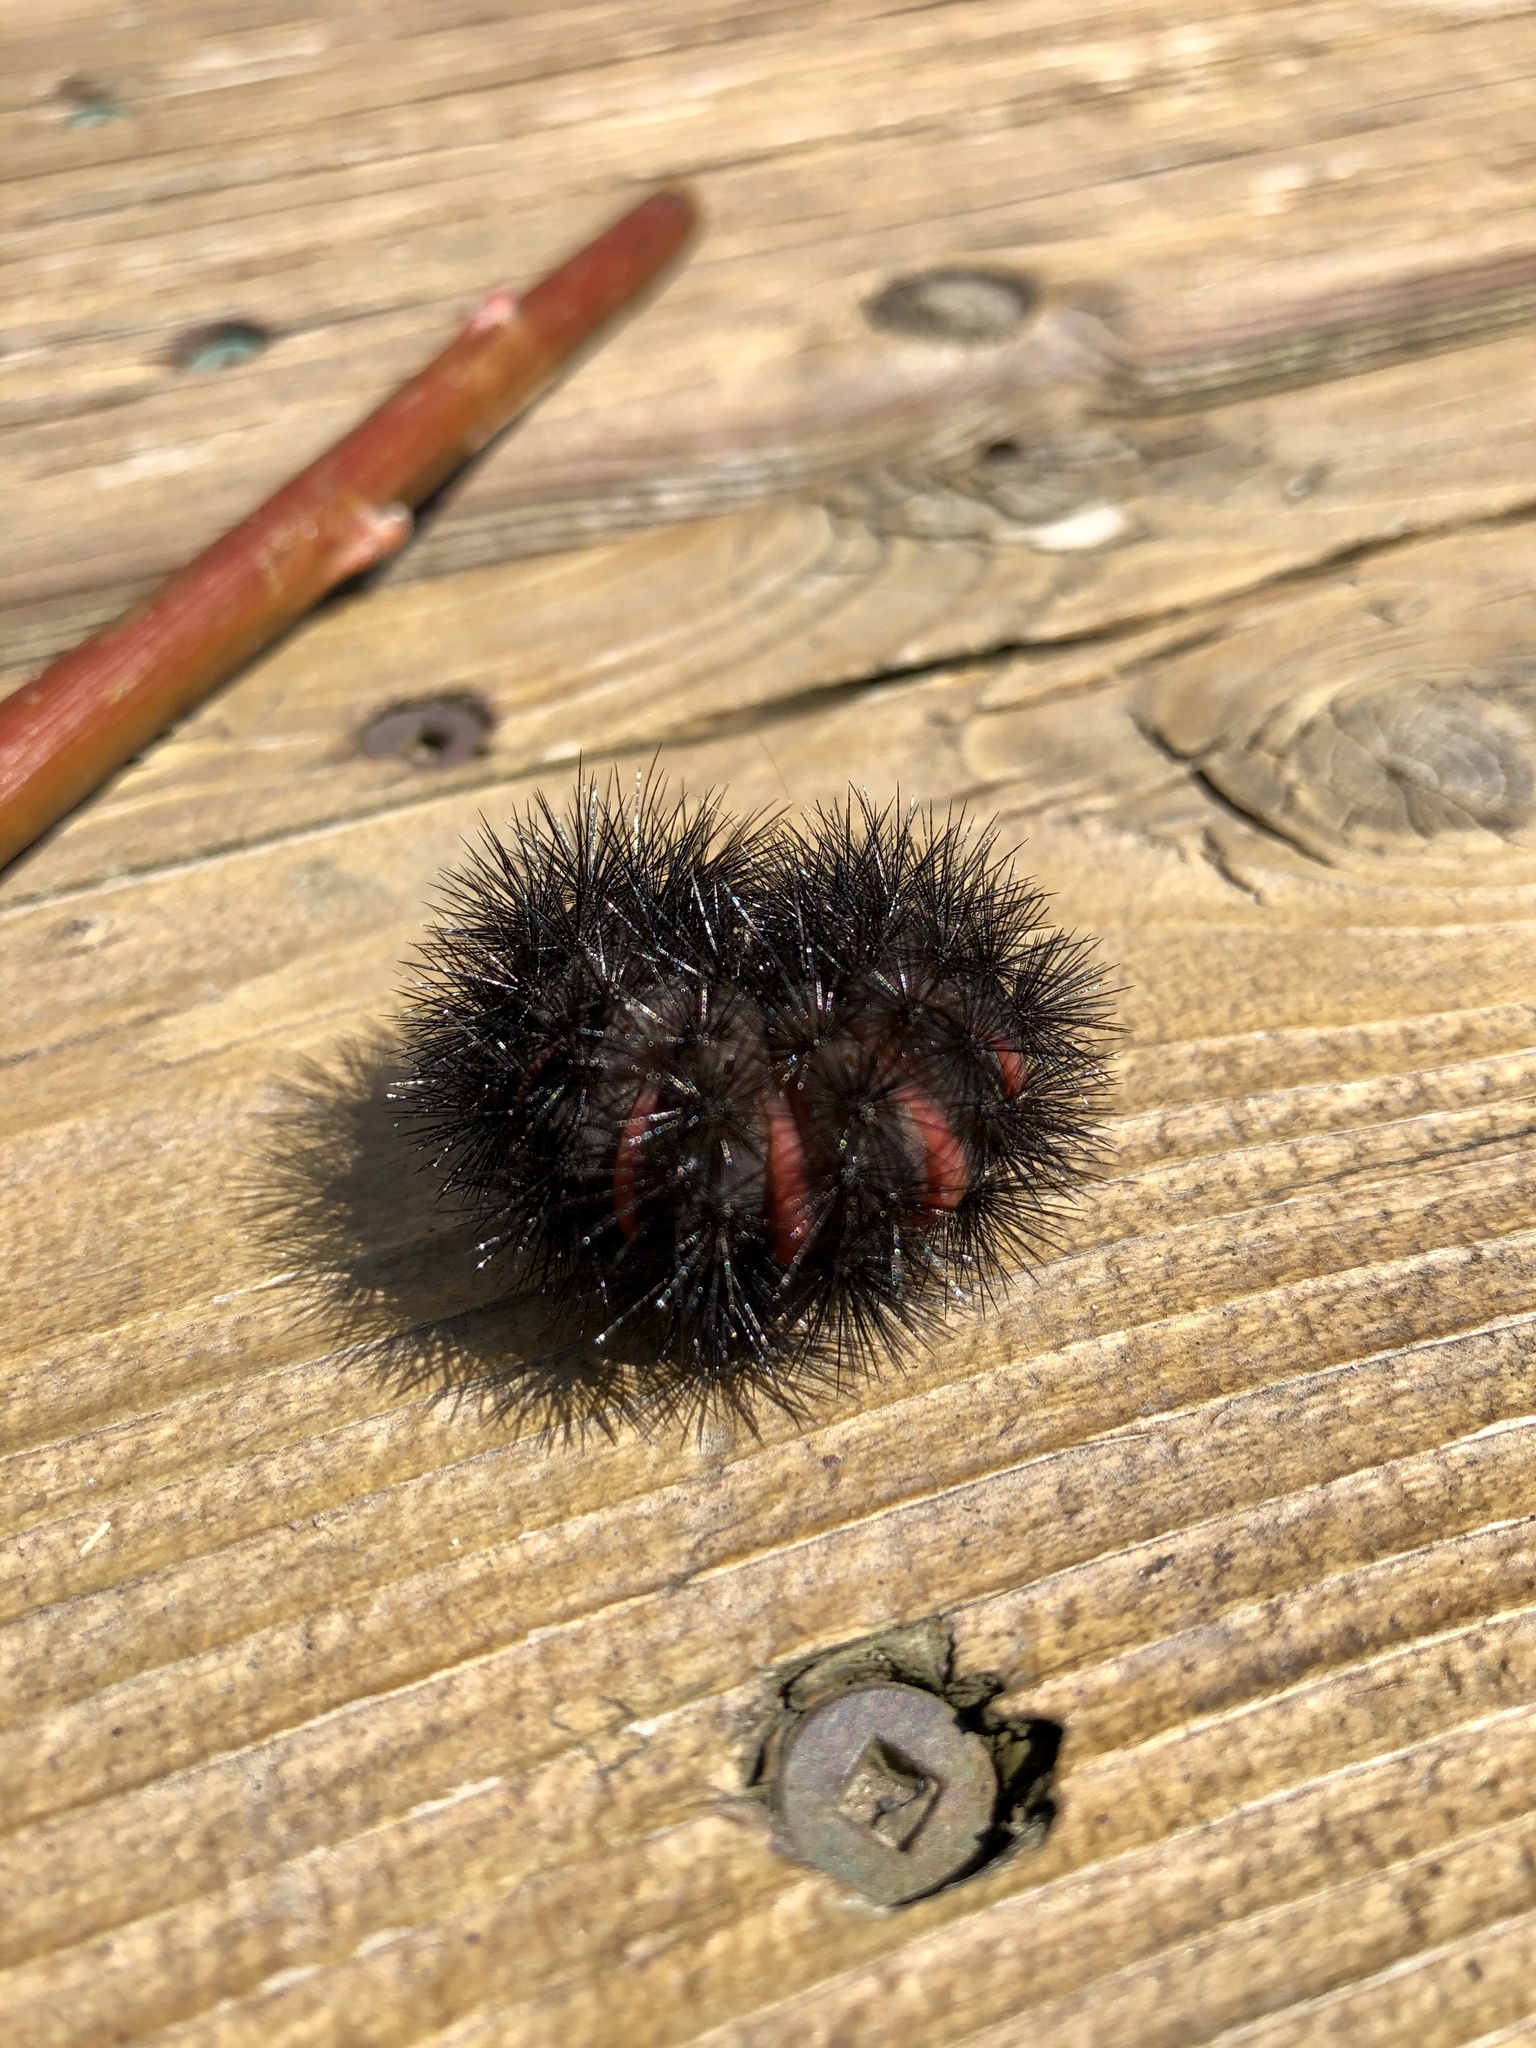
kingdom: Animalia
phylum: Arthropoda
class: Insecta
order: Lepidoptera
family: Erebidae
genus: Hypercompe
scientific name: Hypercompe scribonia
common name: Giant leopard moth
